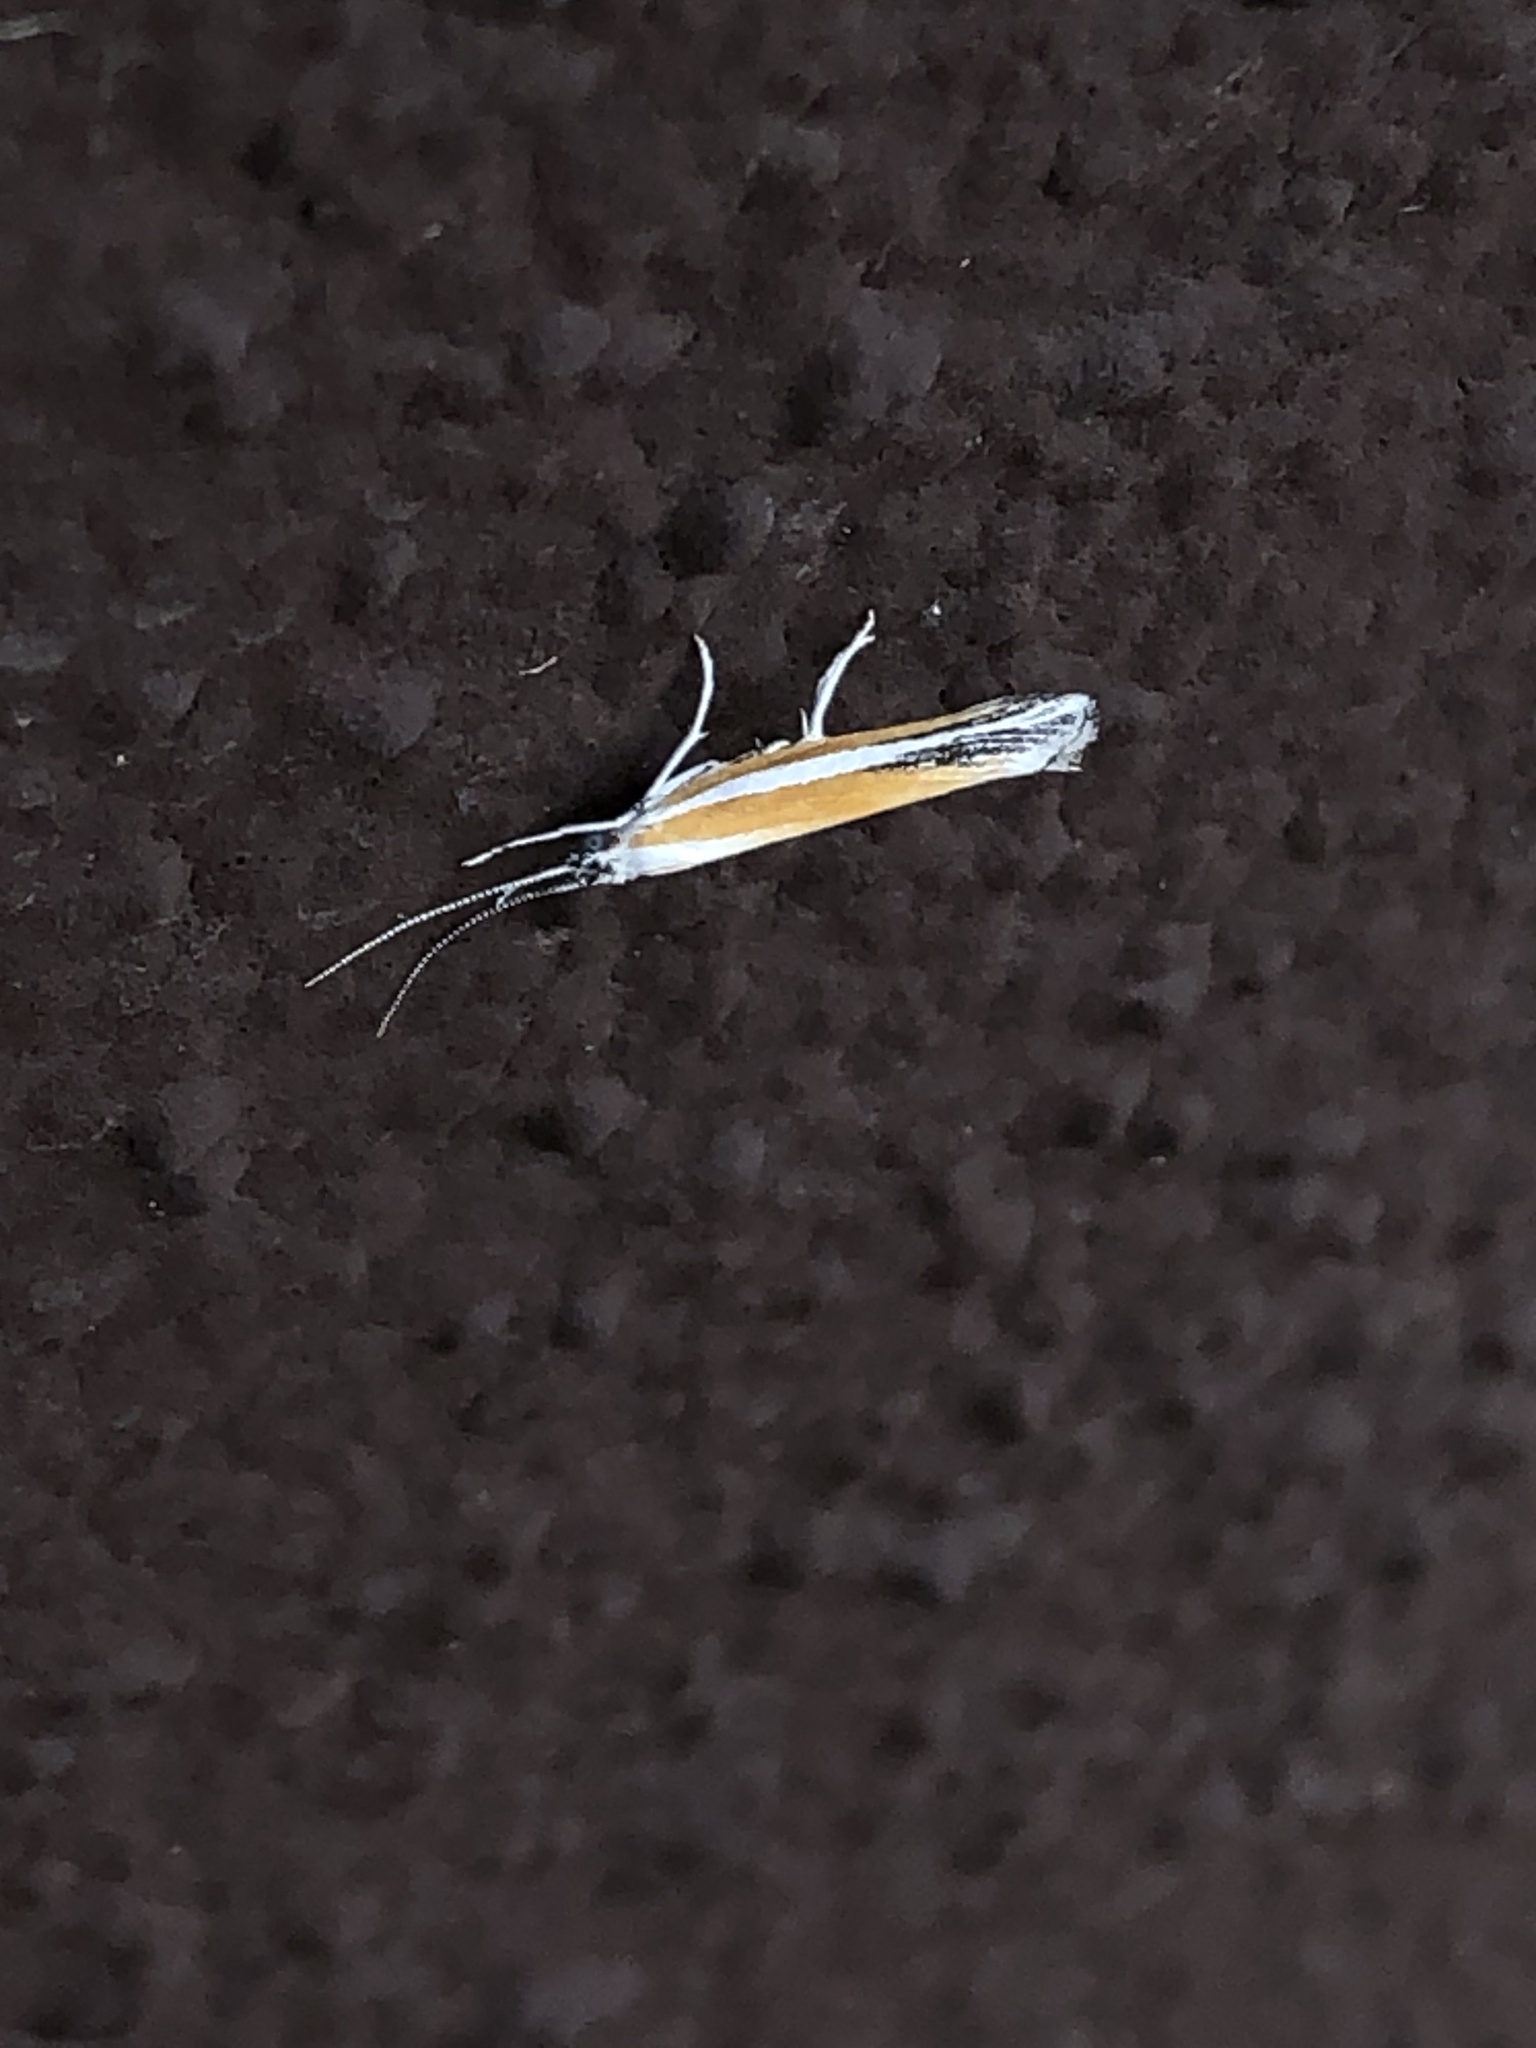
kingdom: Animalia
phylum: Arthropoda
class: Insecta
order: Lepidoptera
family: Ypsolophidae
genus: Ypsolopha
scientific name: Ypsolopha gerdanella
